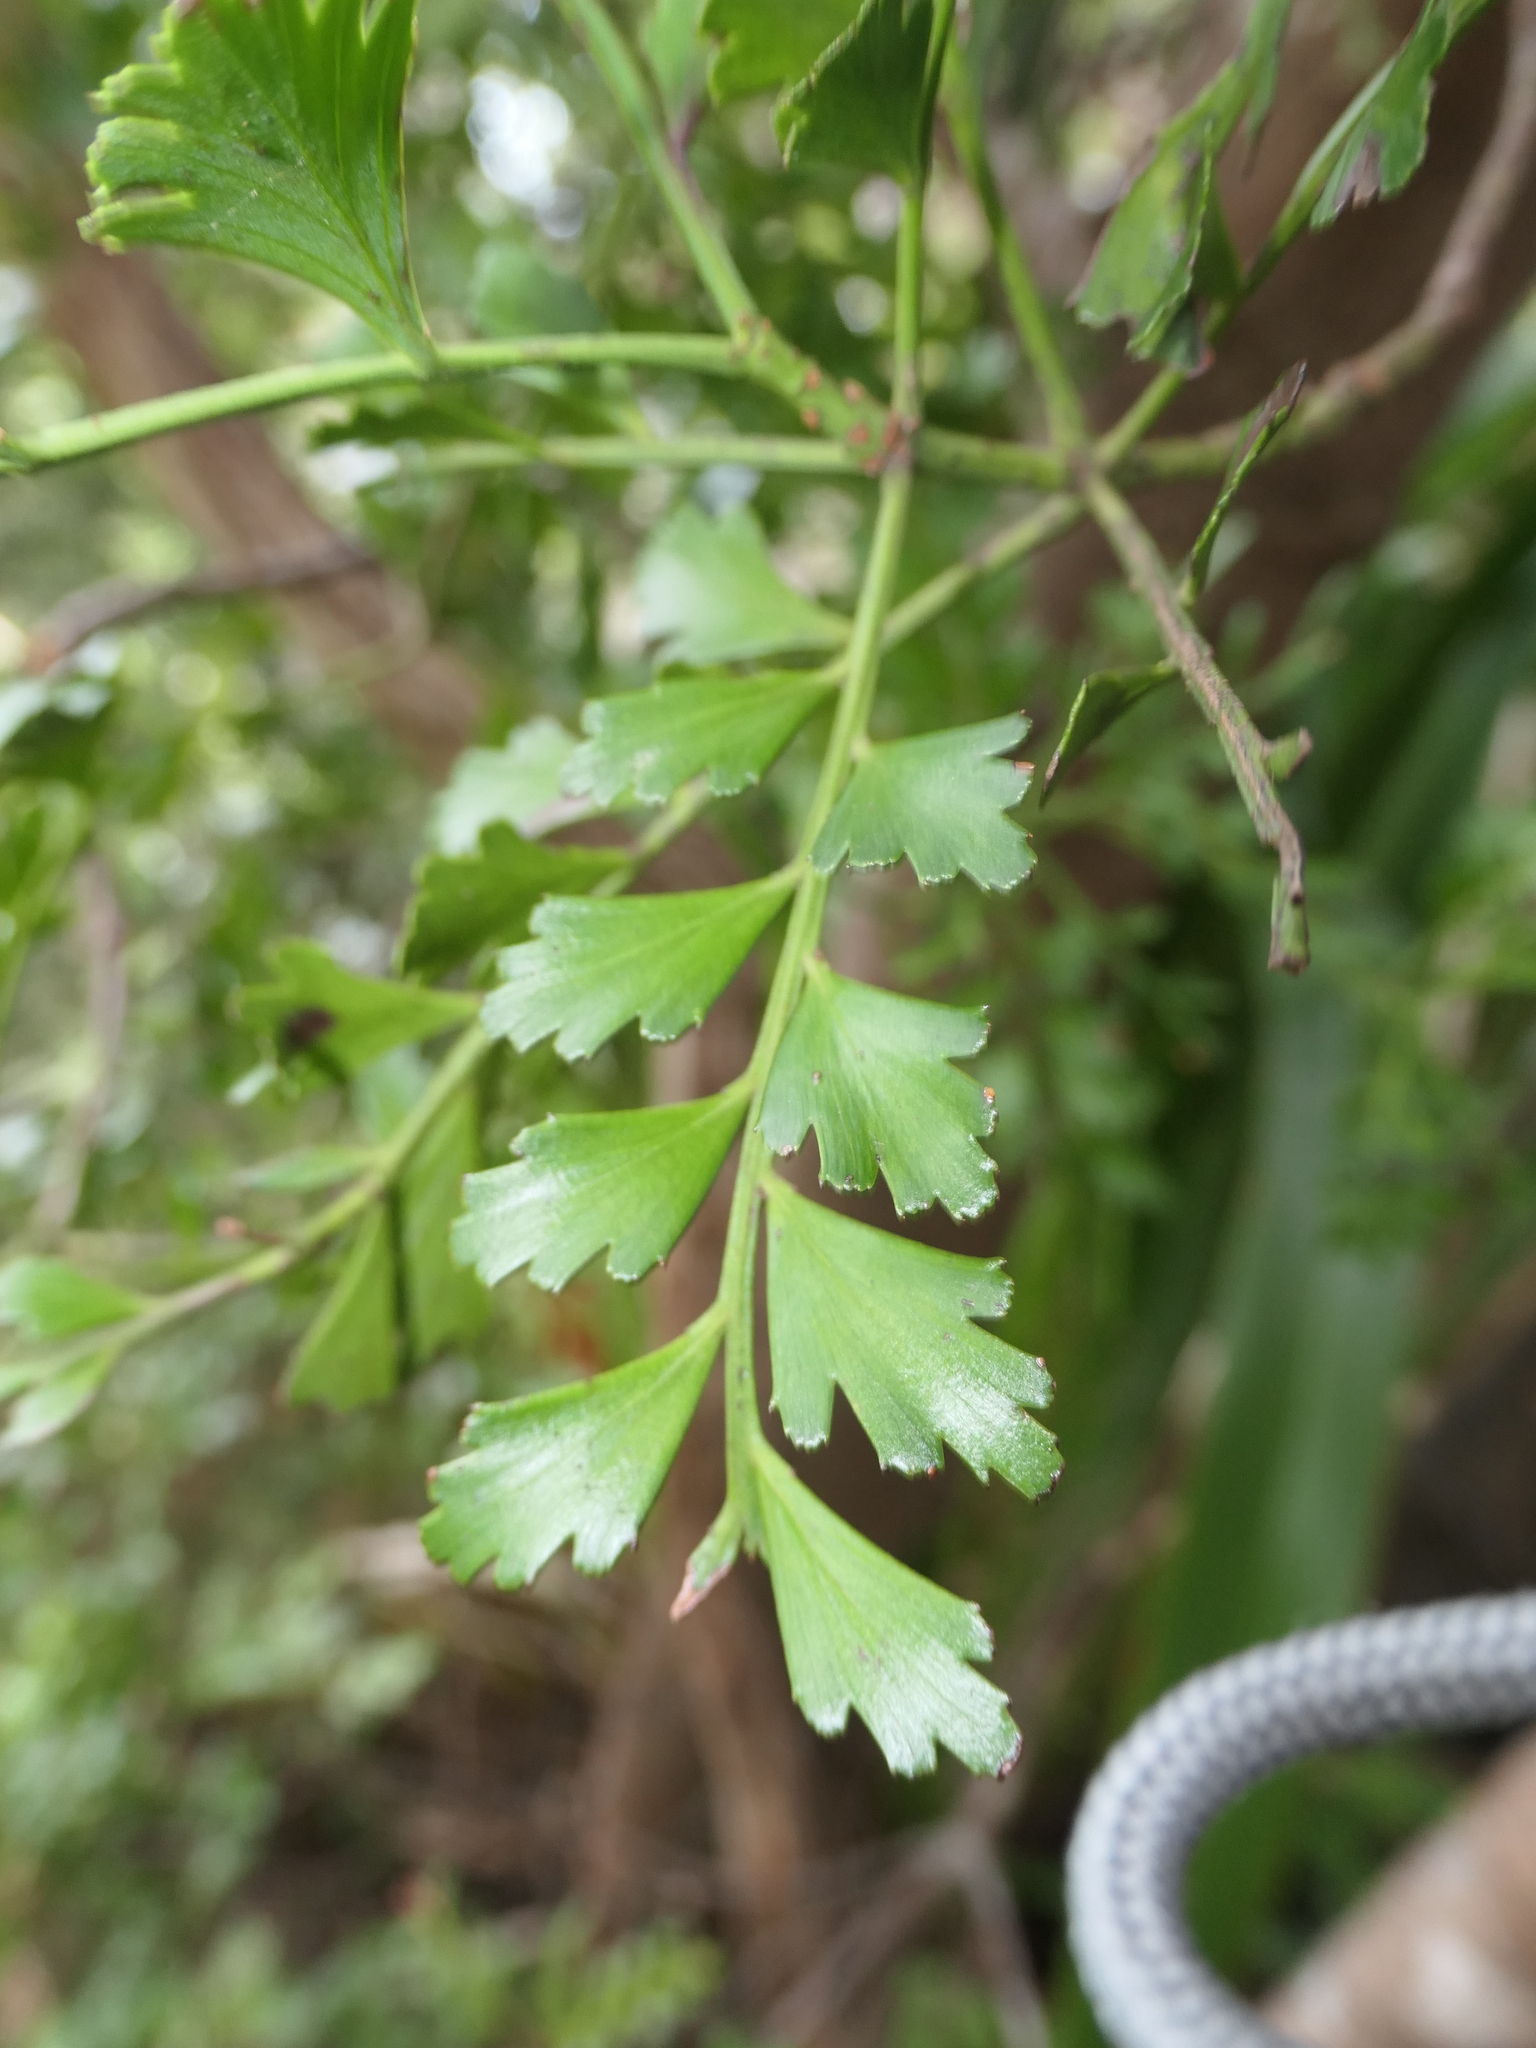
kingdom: Plantae
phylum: Tracheophyta
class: Pinopsida
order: Pinales
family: Phyllocladaceae
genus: Phyllocladus
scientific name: Phyllocladus trichomanoides
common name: Celery pine
